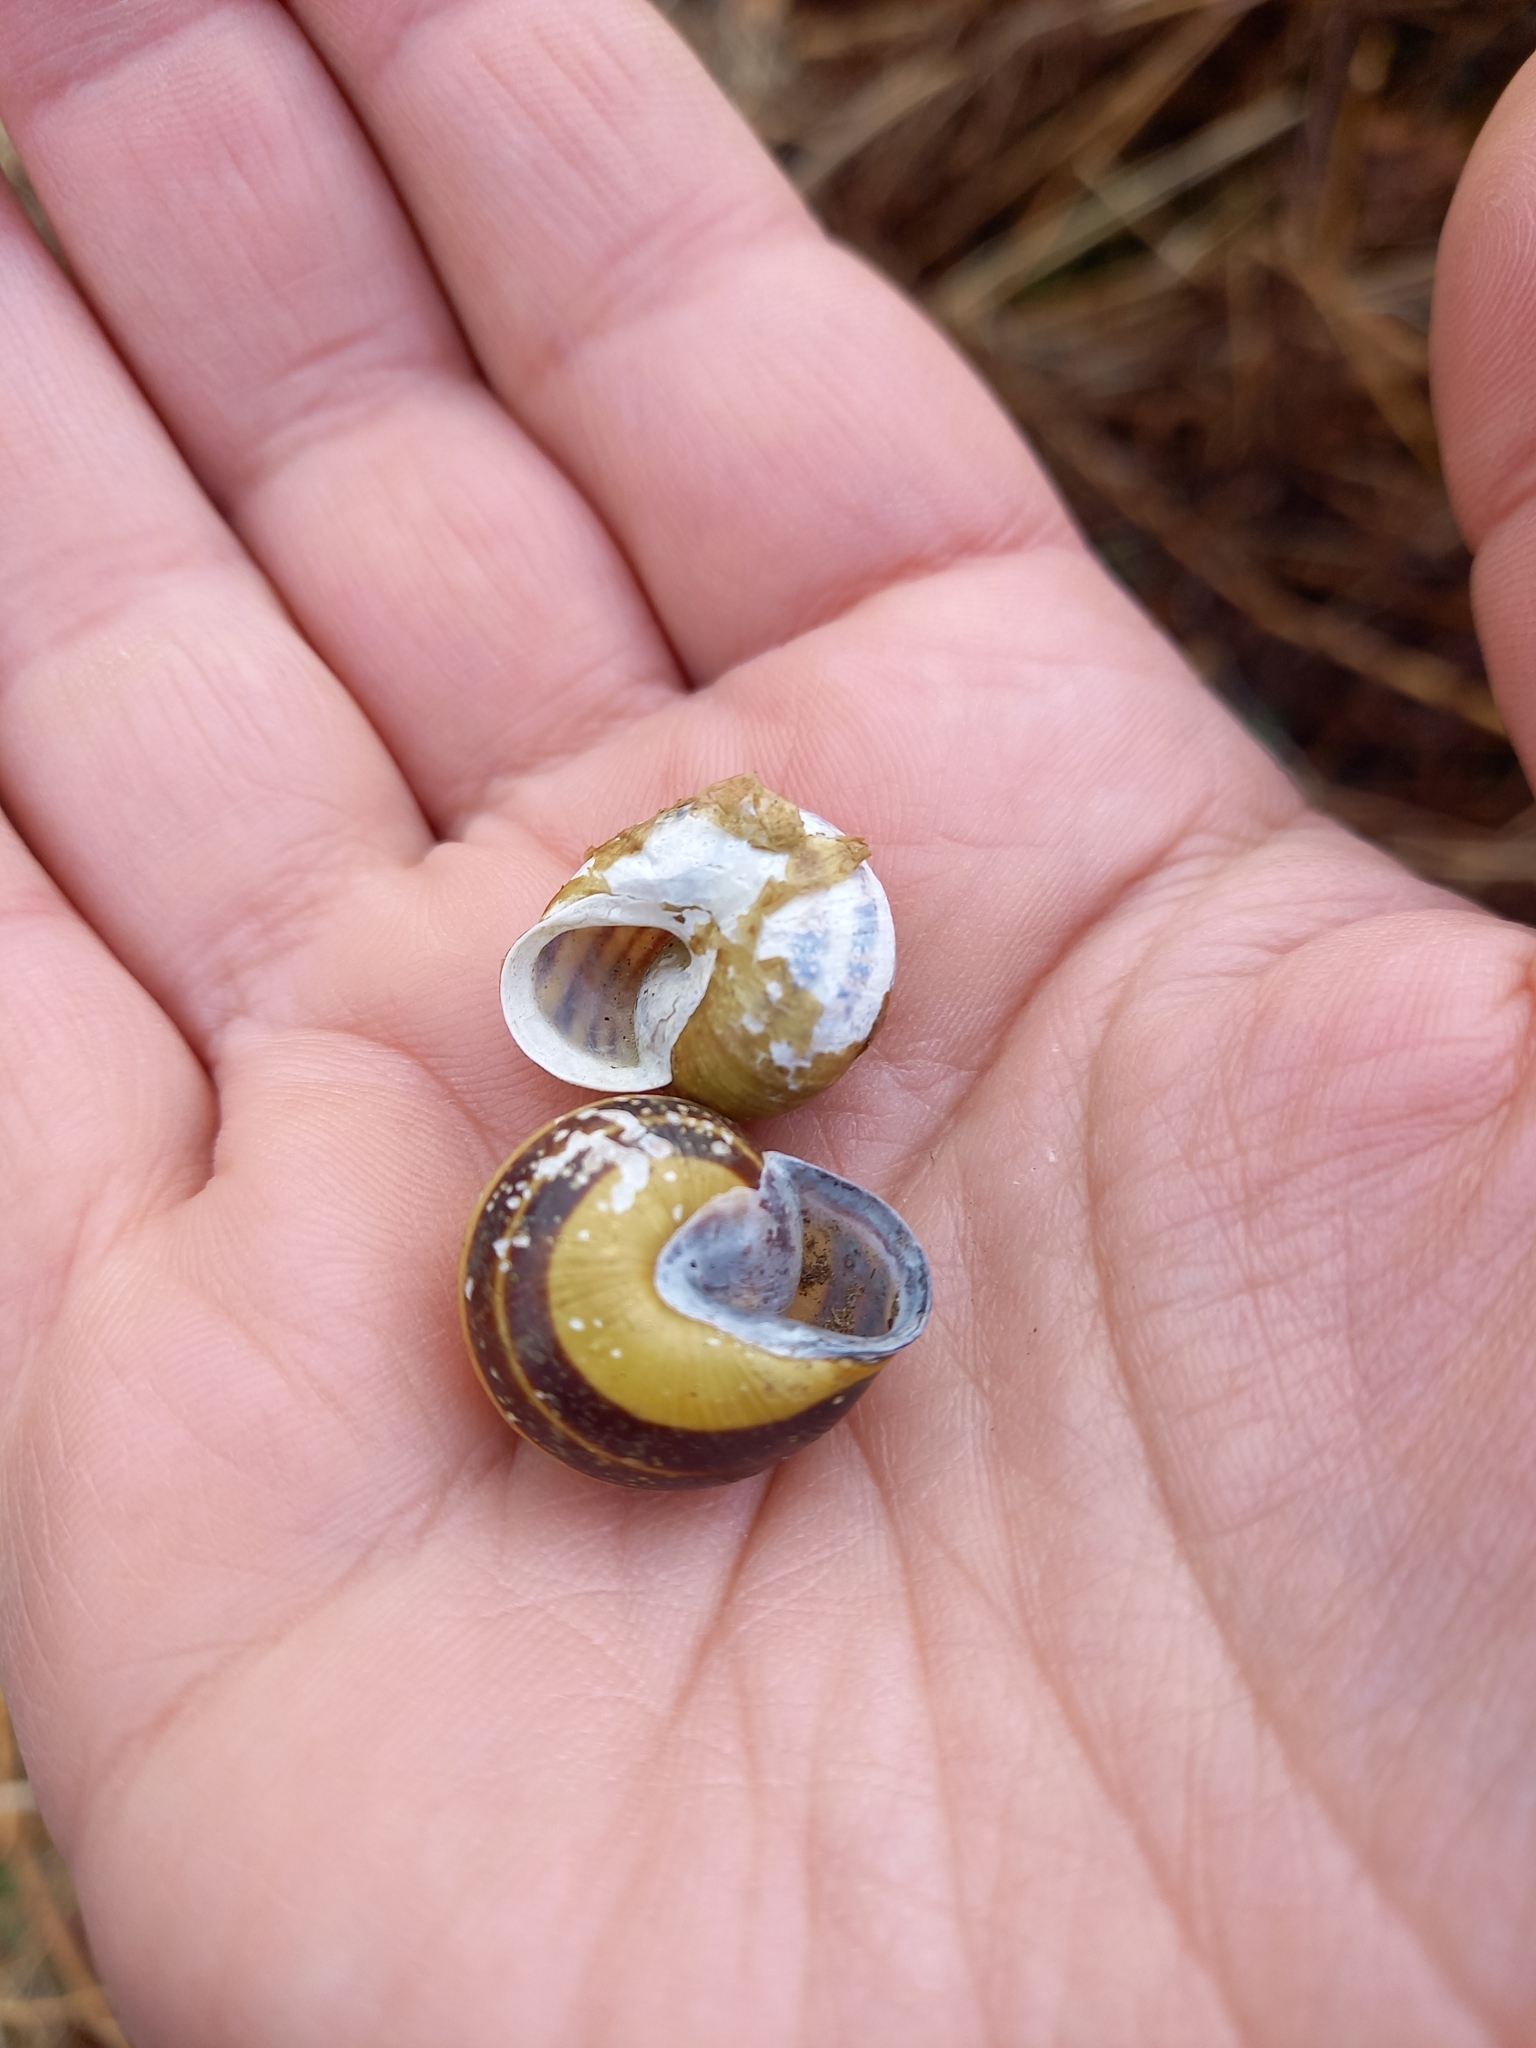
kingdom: Animalia
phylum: Mollusca
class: Gastropoda
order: Stylommatophora
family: Helicidae
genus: Cepaea
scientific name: Cepaea nemoralis
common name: Grovesnail
